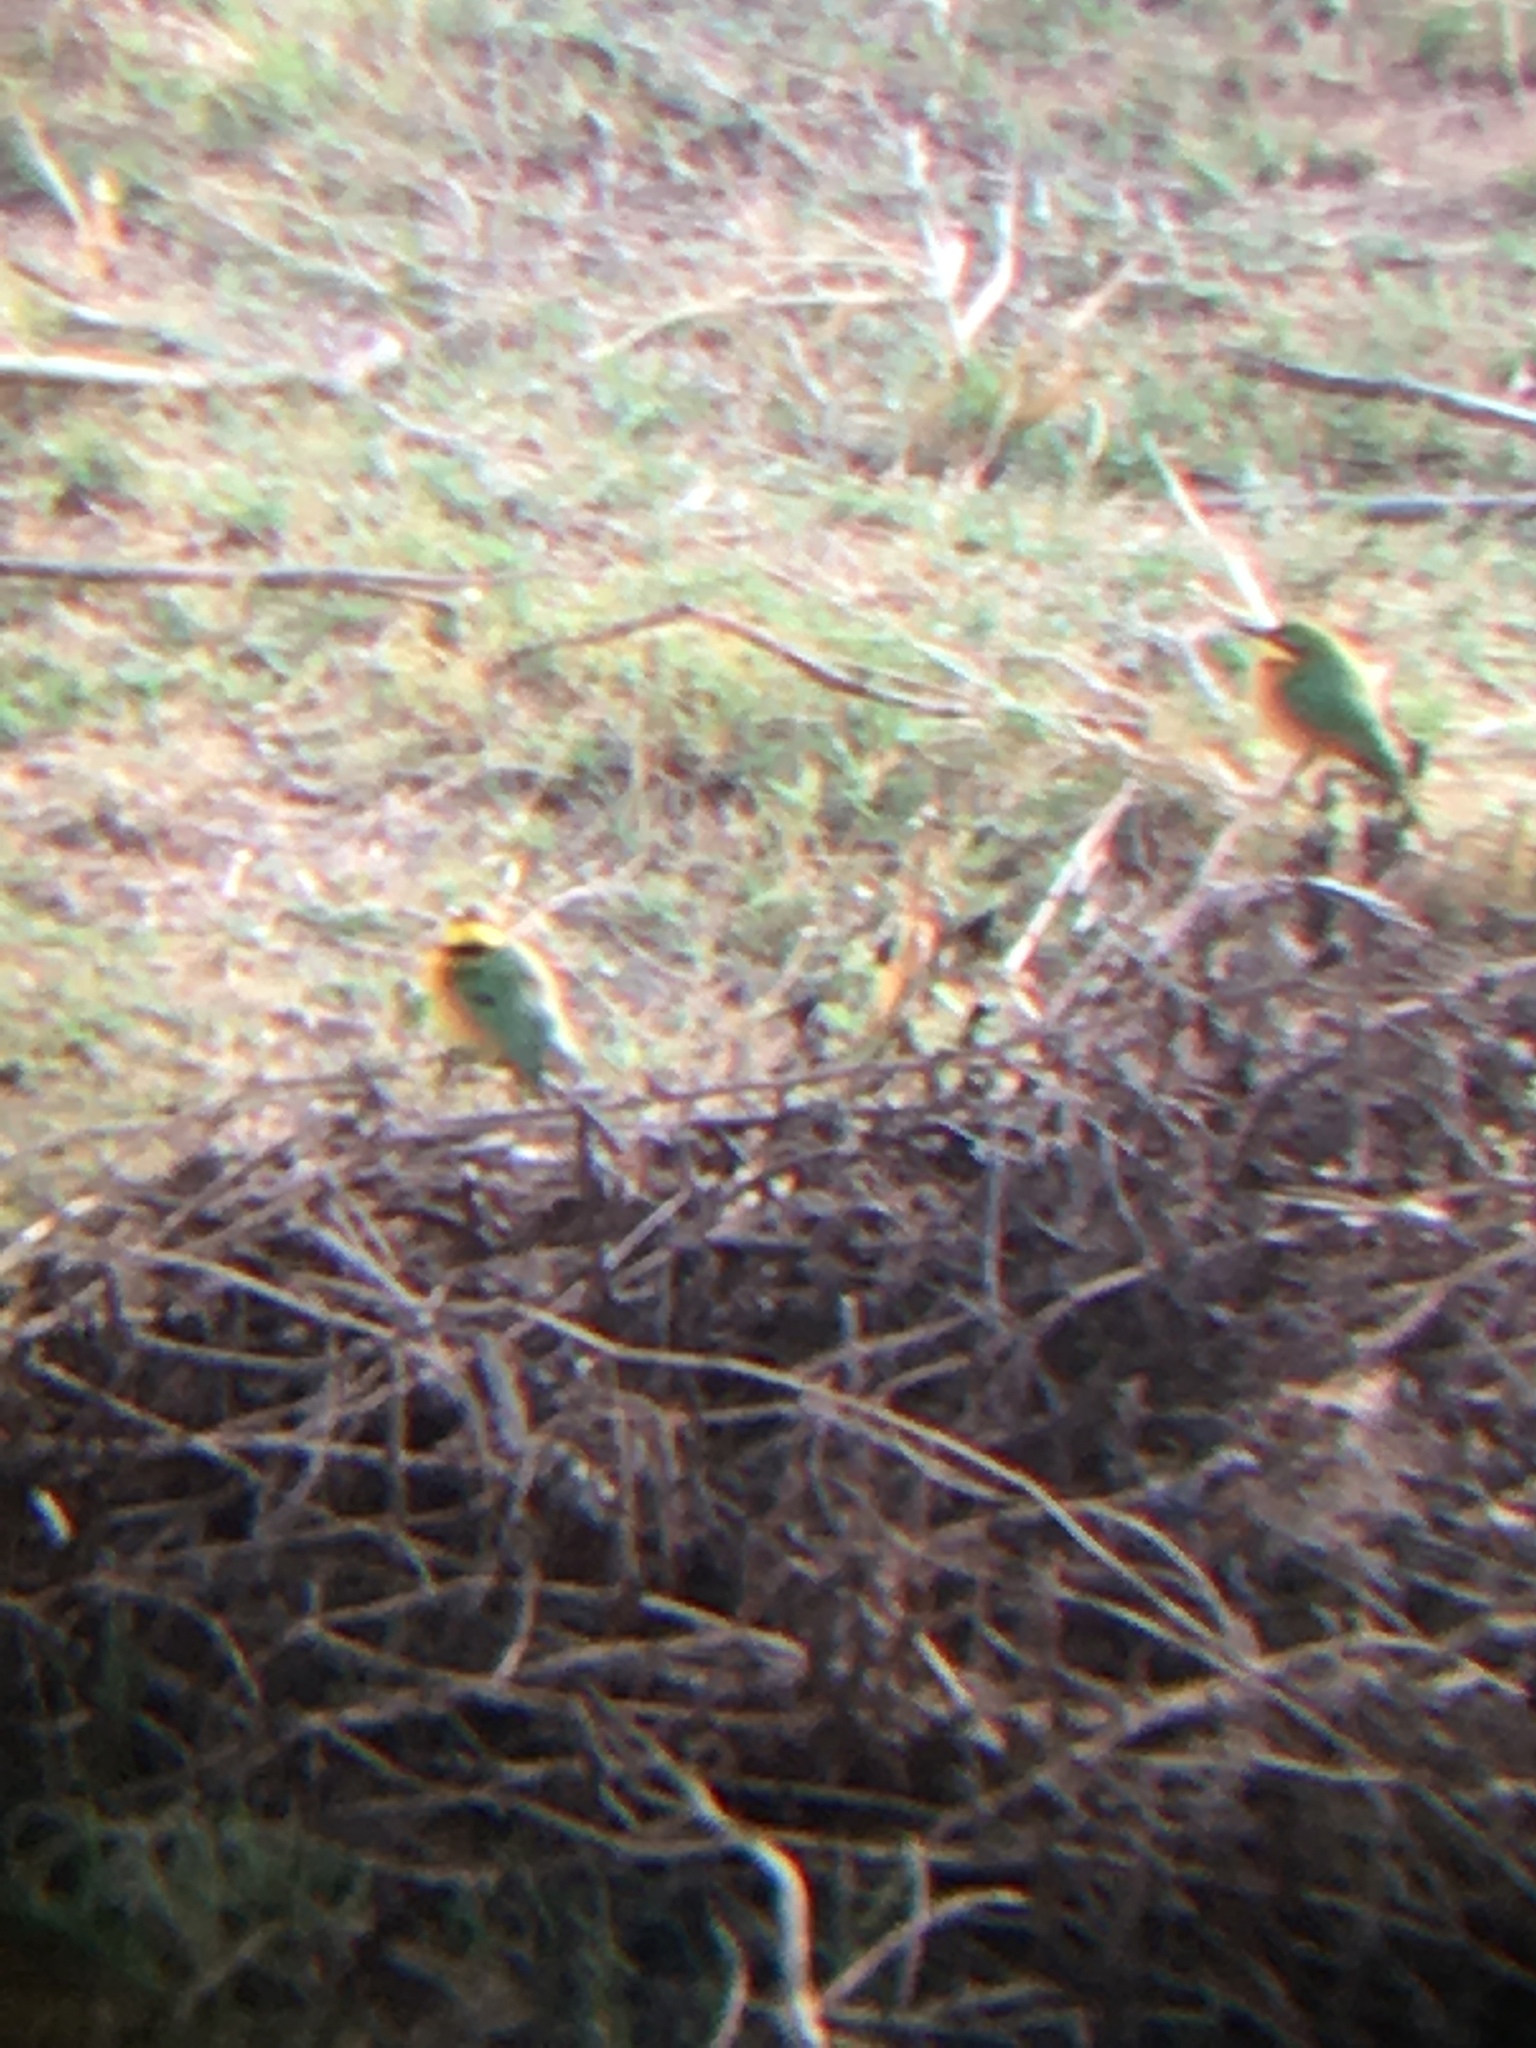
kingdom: Animalia
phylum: Chordata
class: Aves
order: Coraciiformes
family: Meropidae
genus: Merops
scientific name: Merops pusillus
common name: Little bee-eater
